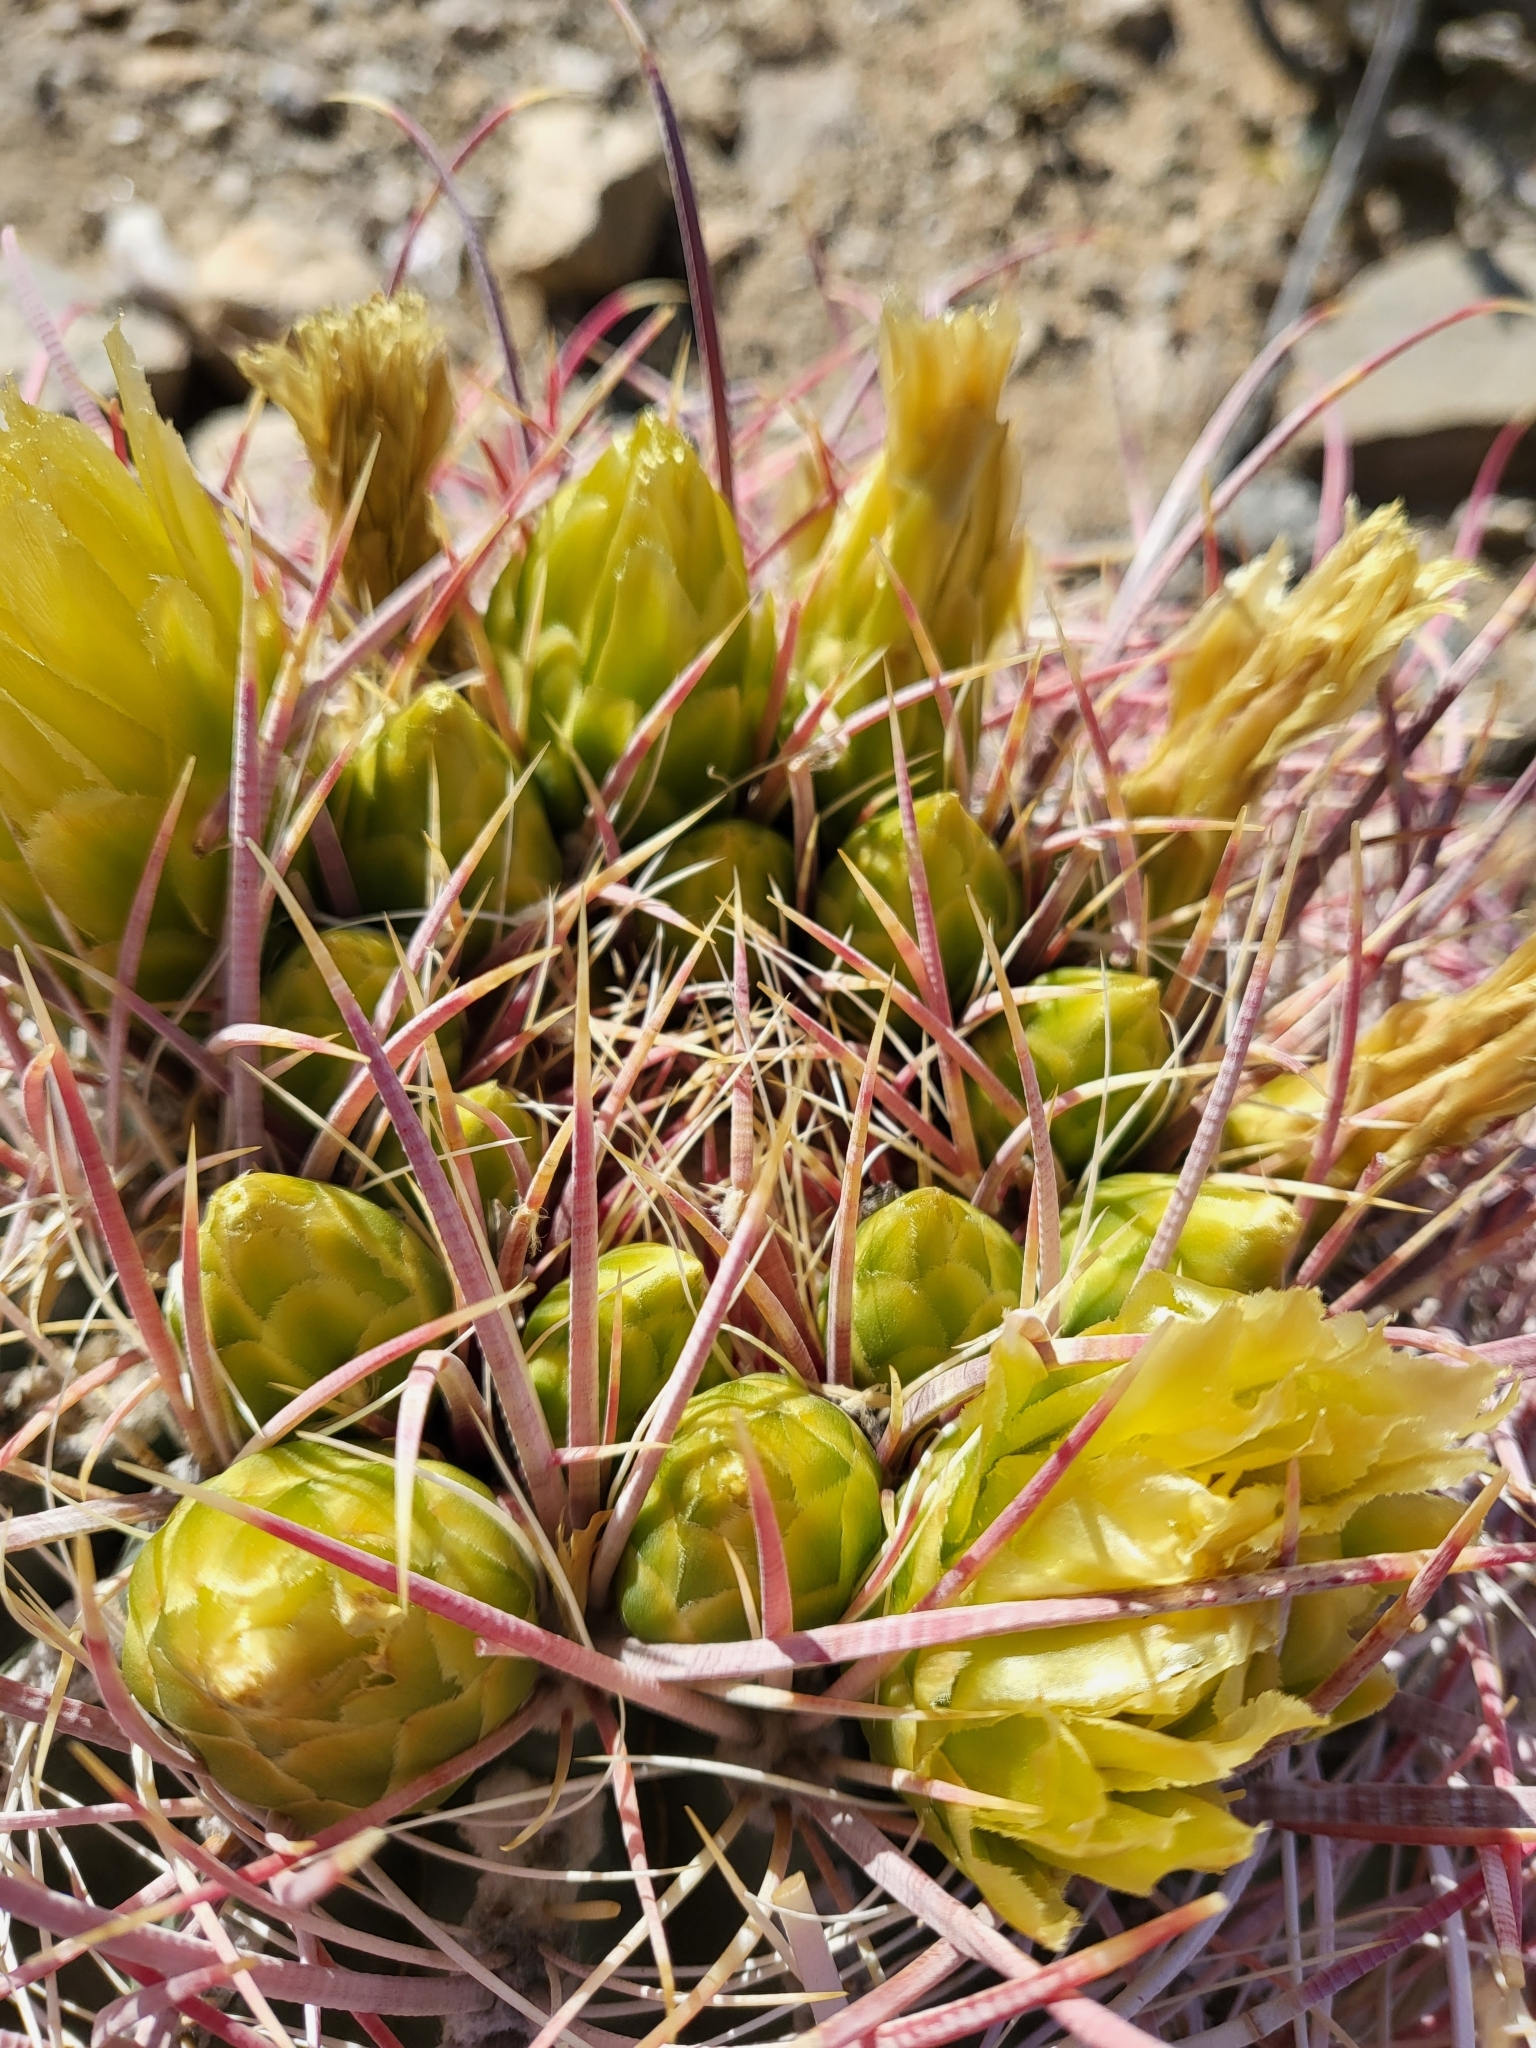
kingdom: Plantae
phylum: Tracheophyta
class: Magnoliopsida
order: Caryophyllales
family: Cactaceae
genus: Ferocactus
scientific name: Ferocactus cylindraceus
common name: California barrel cactus
